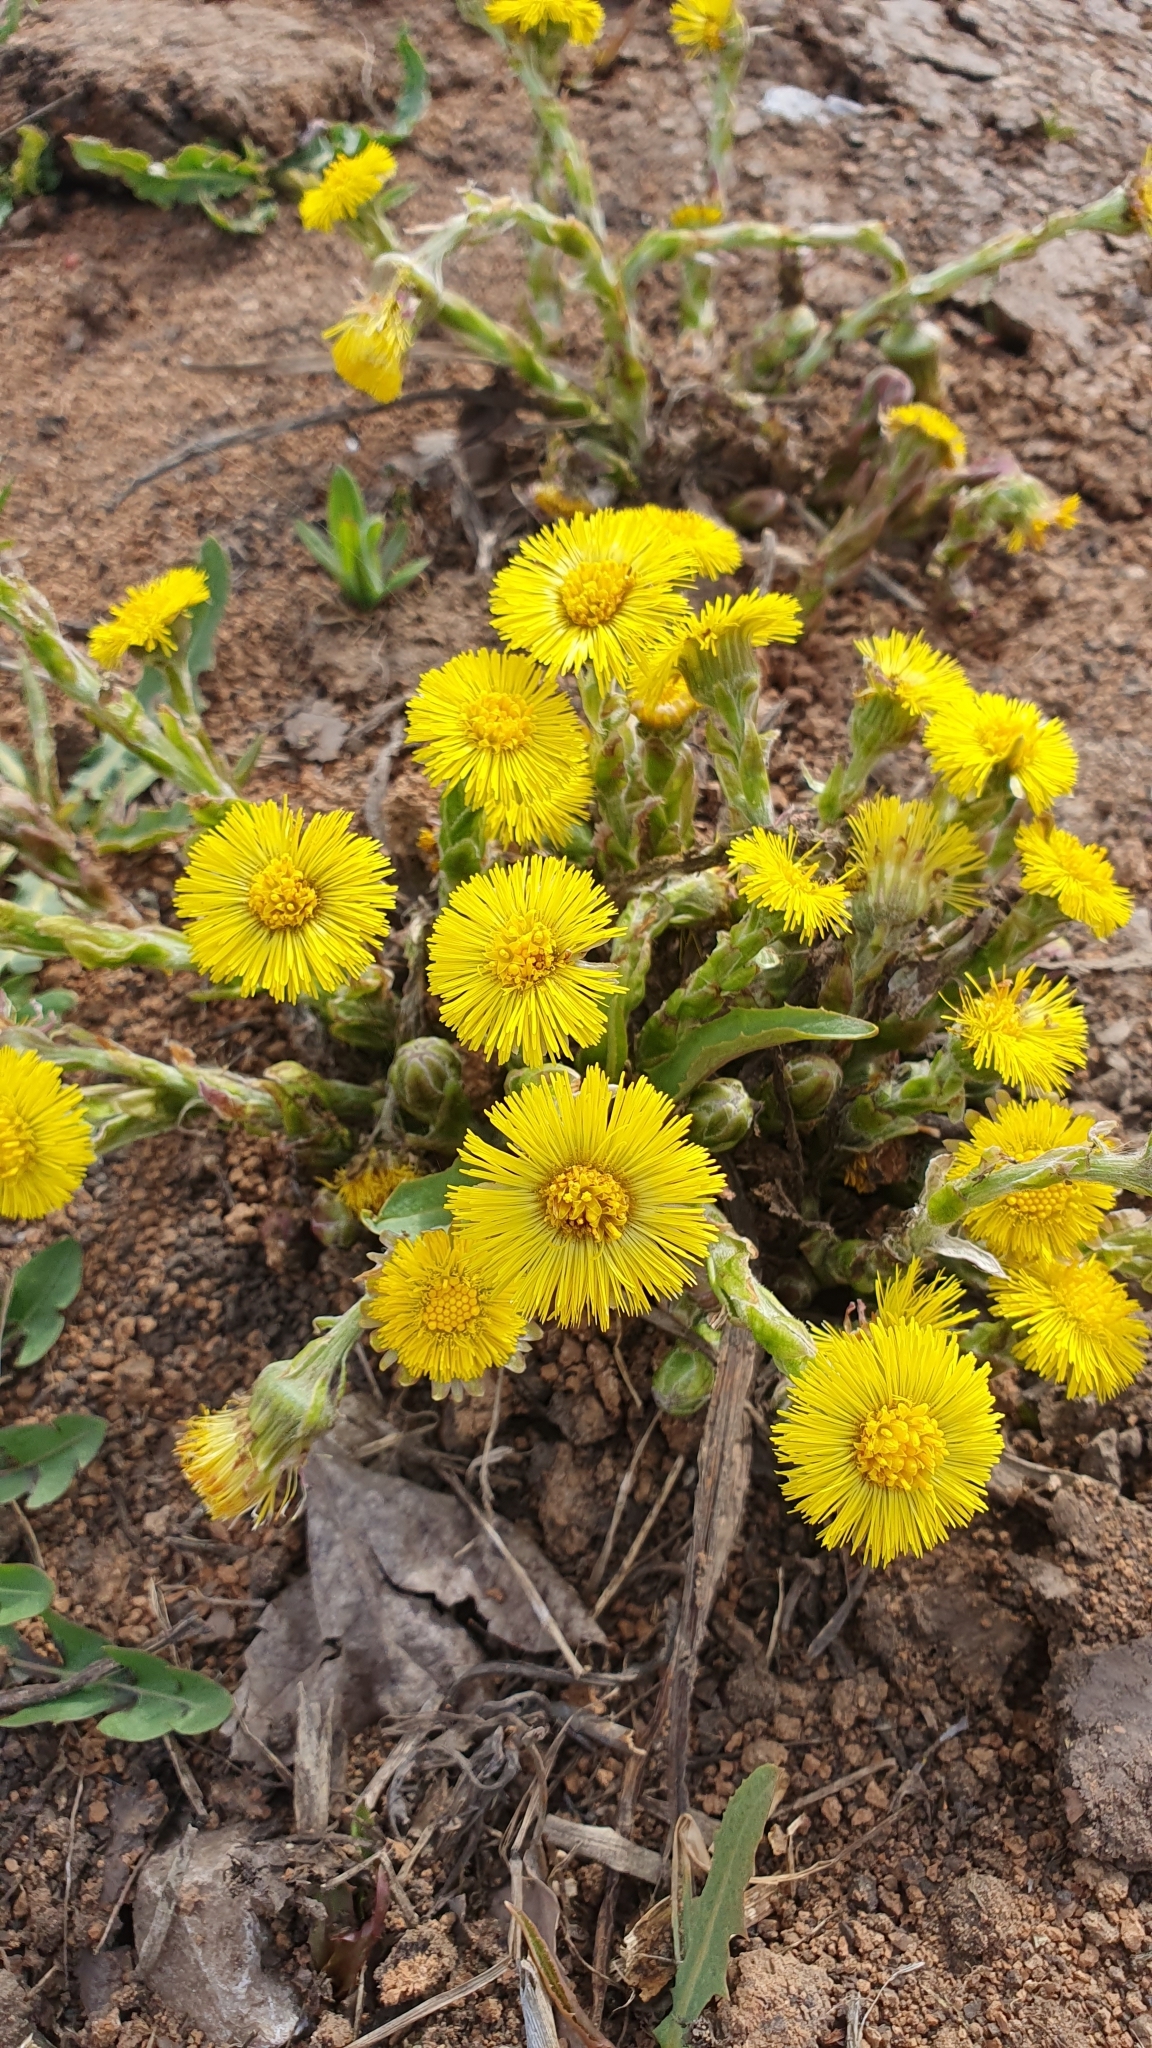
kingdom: Plantae
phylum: Tracheophyta
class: Magnoliopsida
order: Asterales
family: Asteraceae
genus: Tussilago
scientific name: Tussilago farfara
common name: Coltsfoot
